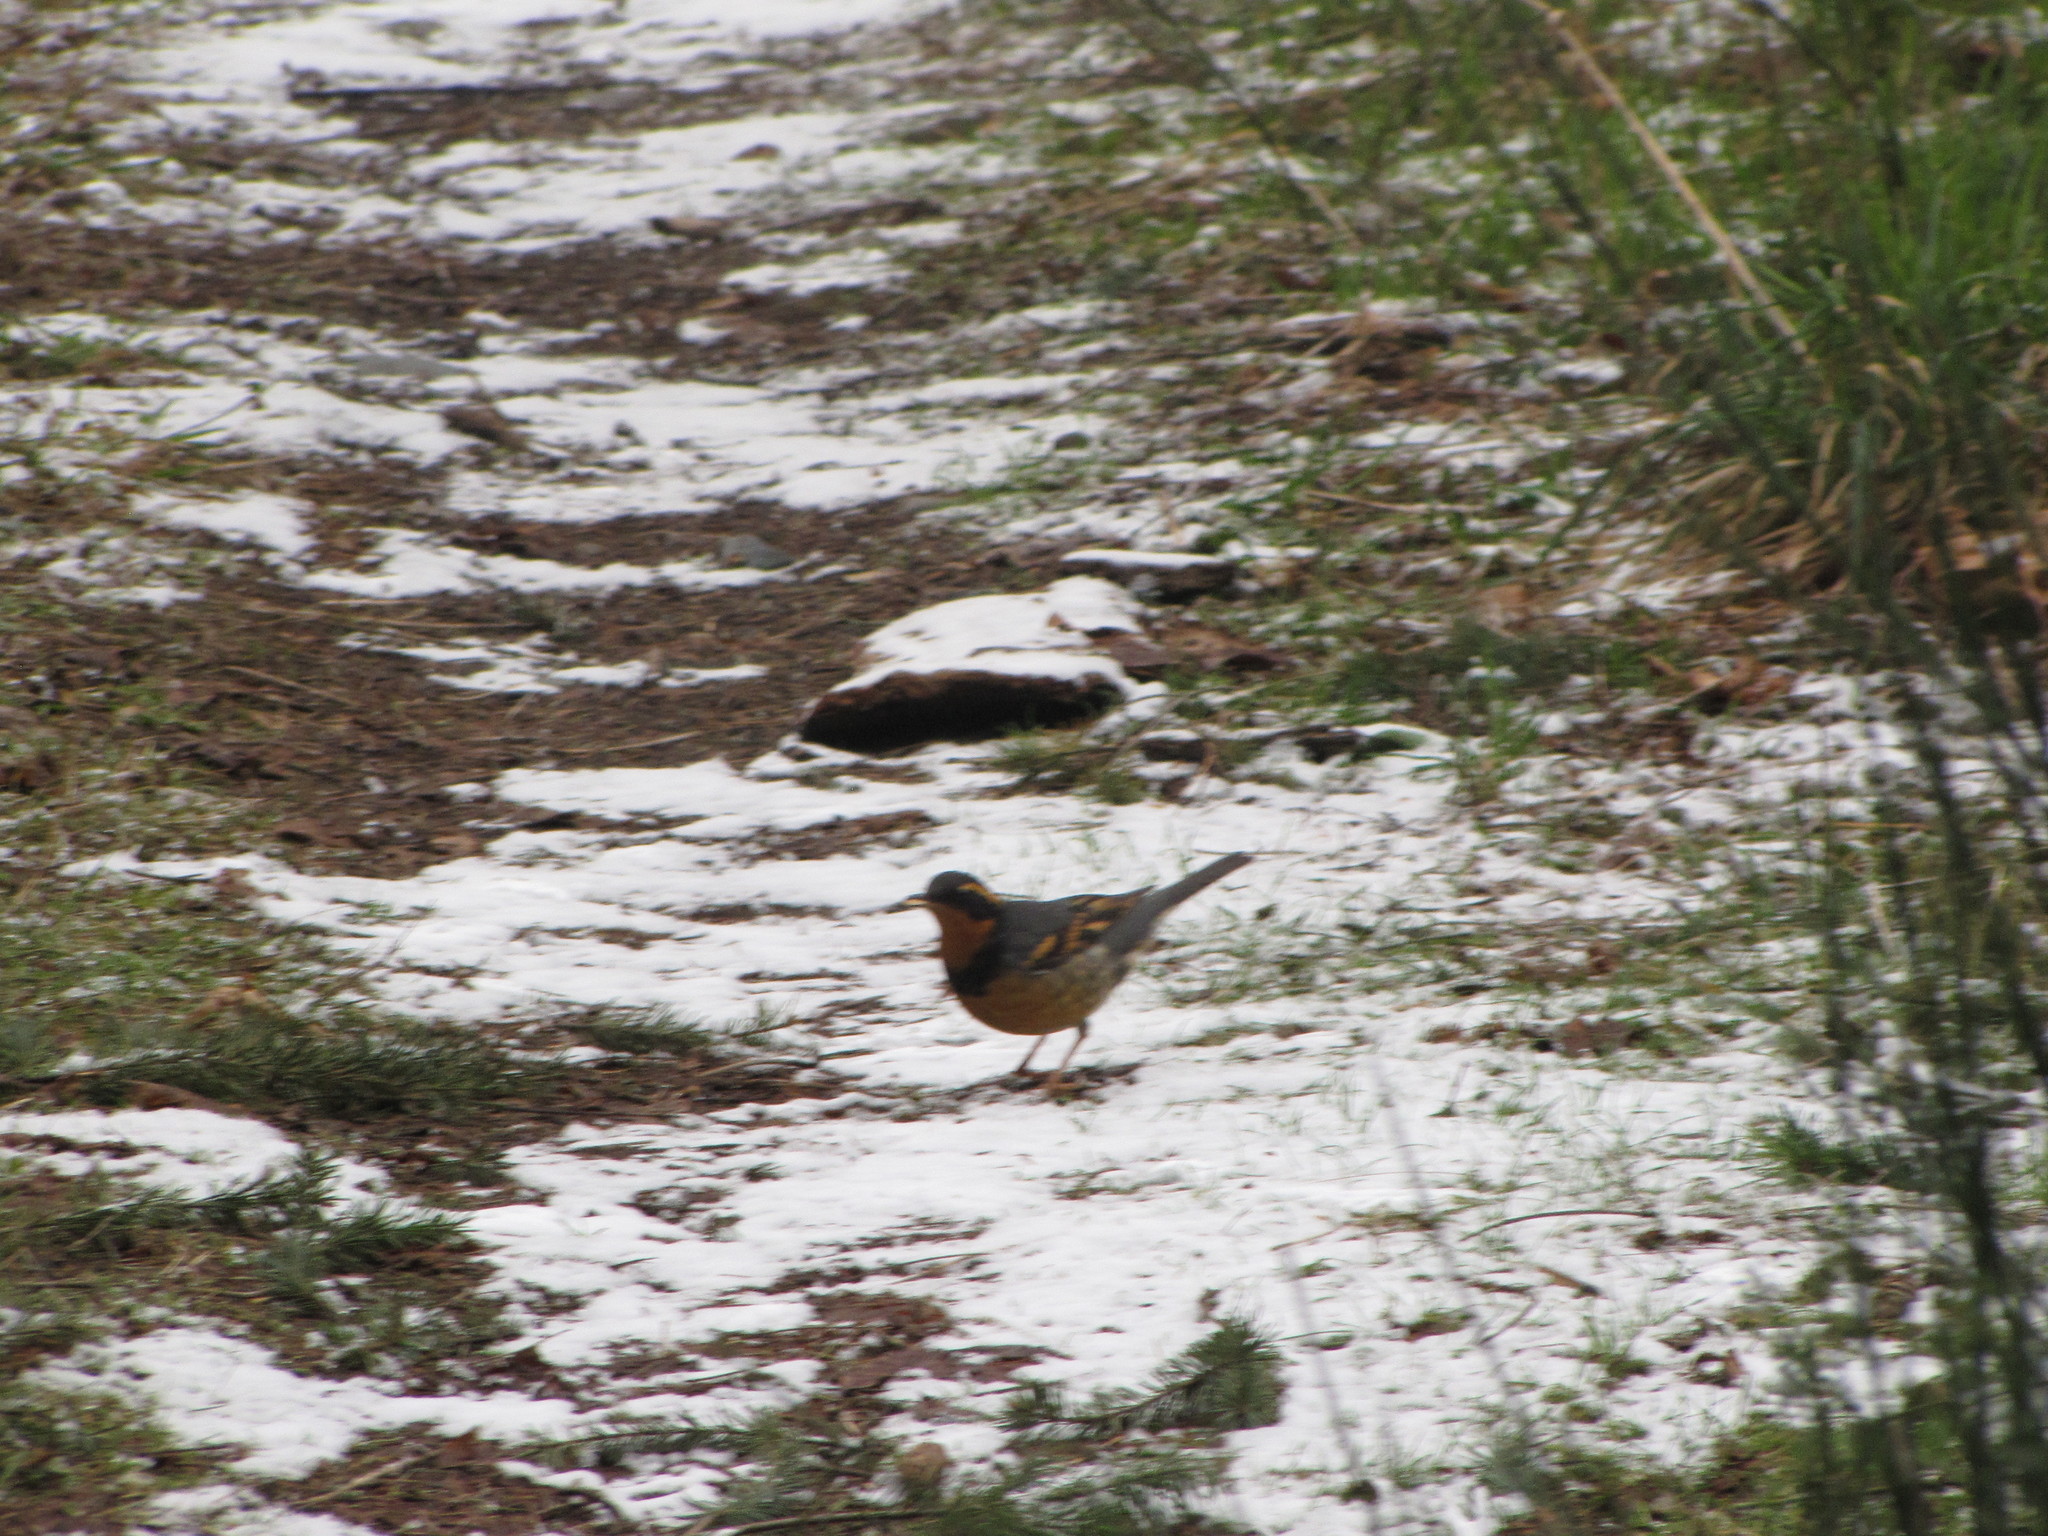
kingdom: Animalia
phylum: Chordata
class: Aves
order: Passeriformes
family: Turdidae
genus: Ixoreus
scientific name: Ixoreus naevius
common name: Varied thrush
